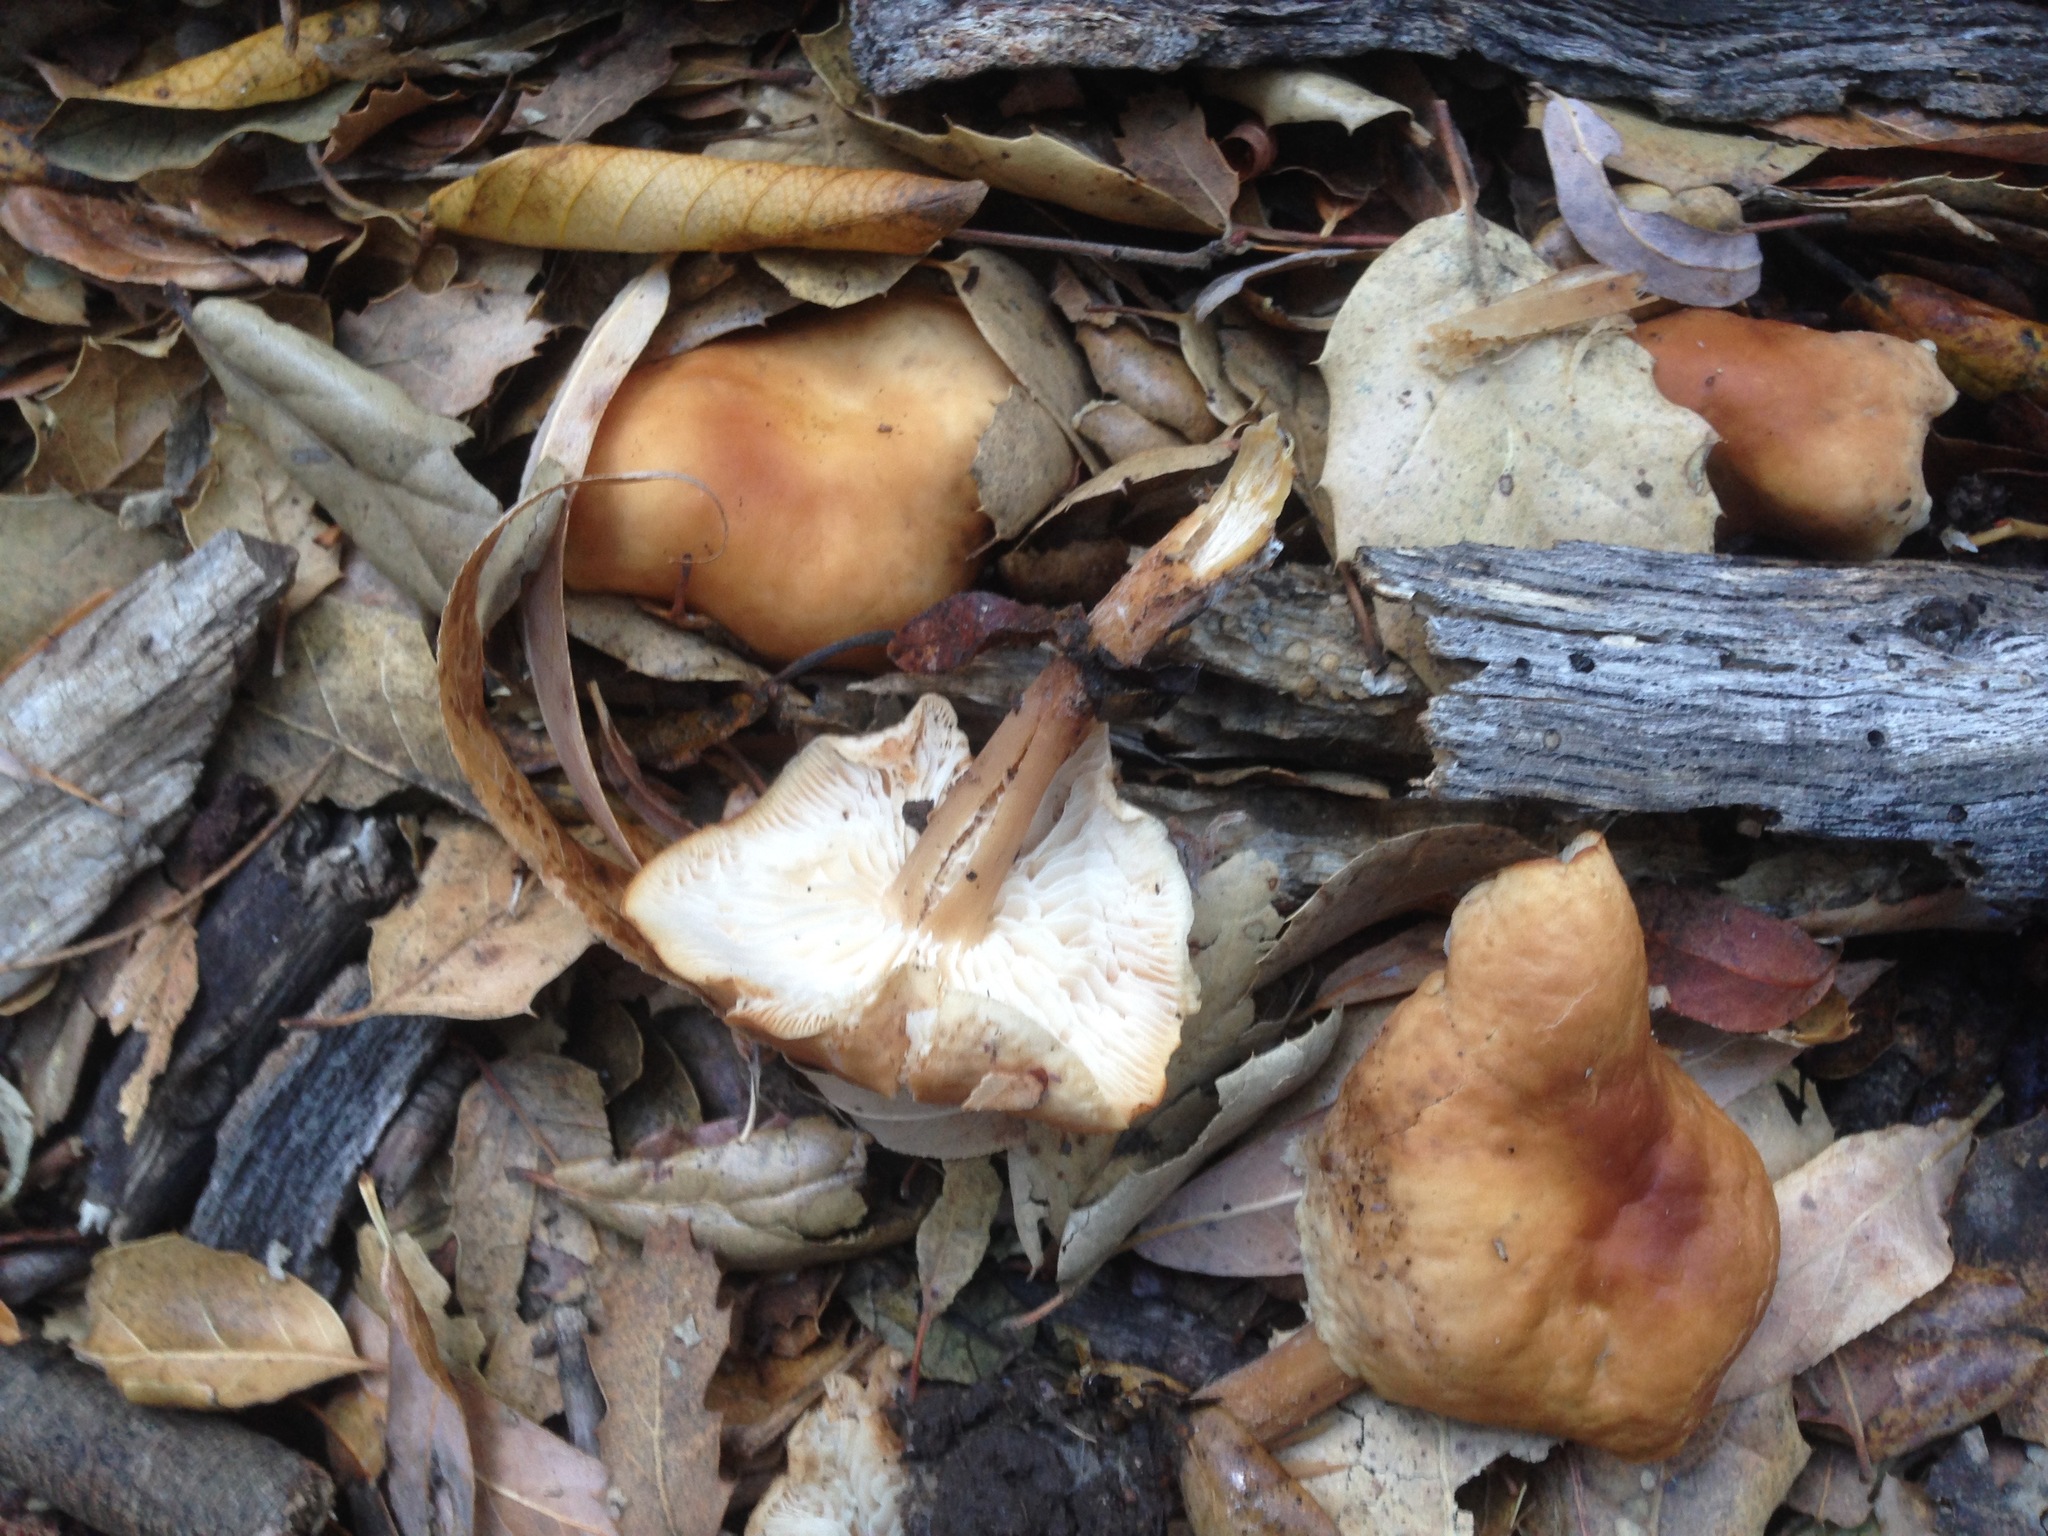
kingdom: Fungi
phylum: Basidiomycota
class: Agaricomycetes
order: Agaricales
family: Omphalotaceae
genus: Gymnopus
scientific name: Gymnopus dryophilus
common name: Penny top
